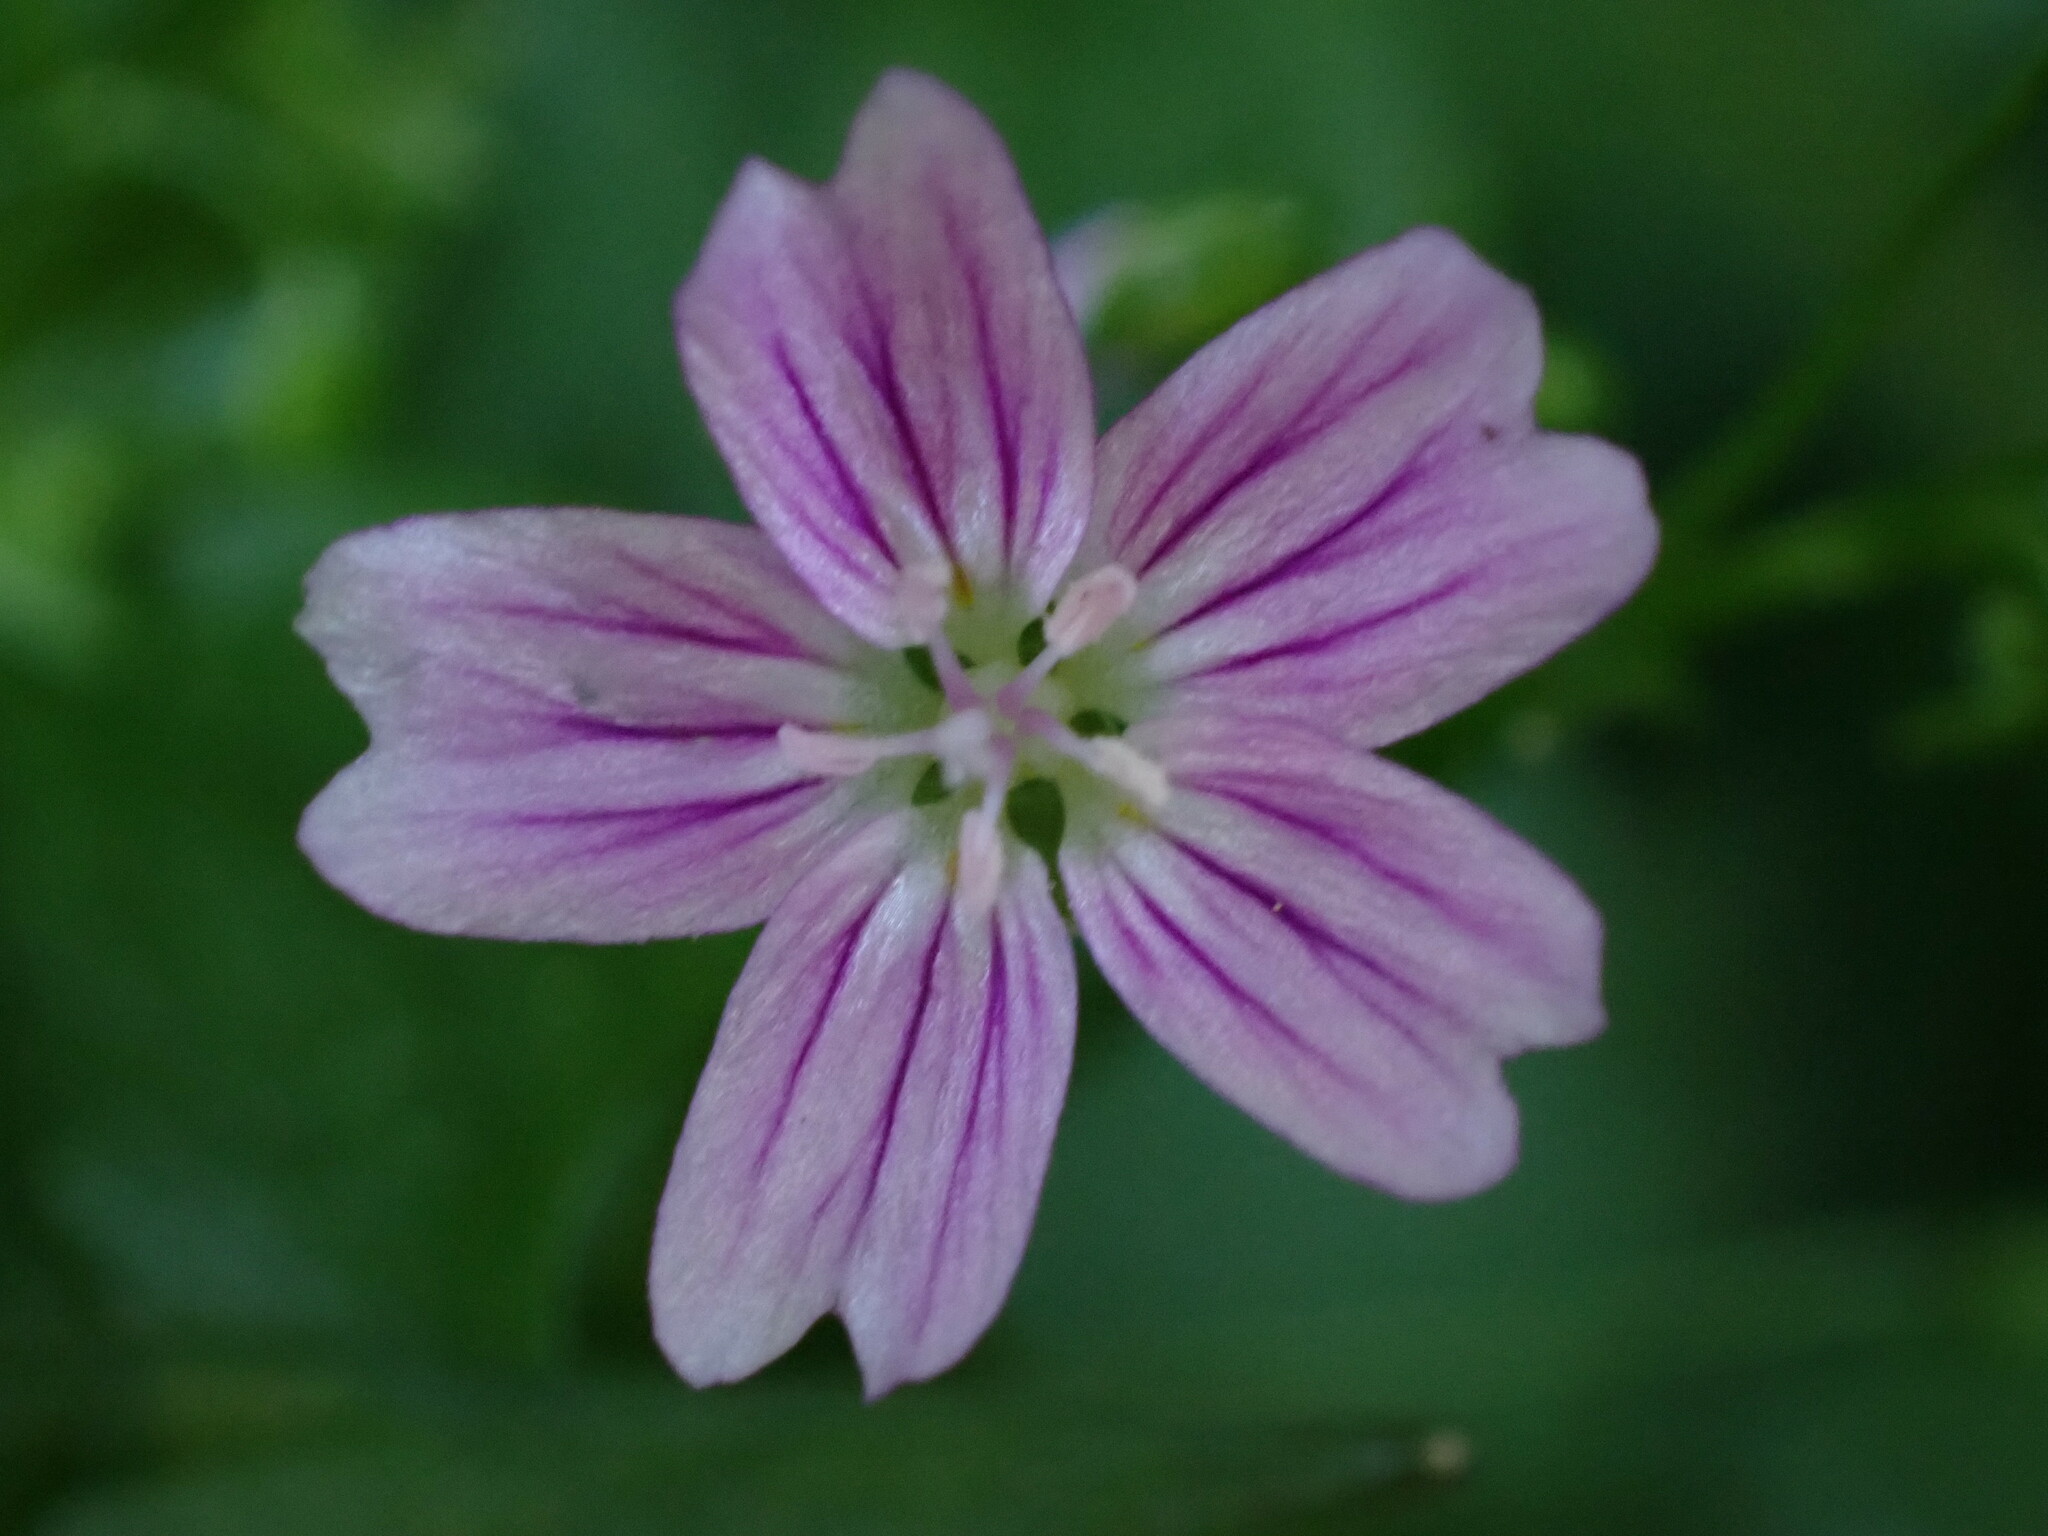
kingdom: Plantae
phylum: Tracheophyta
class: Magnoliopsida
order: Caryophyllales
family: Montiaceae
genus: Claytonia
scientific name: Claytonia sibirica
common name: Pink purslane
